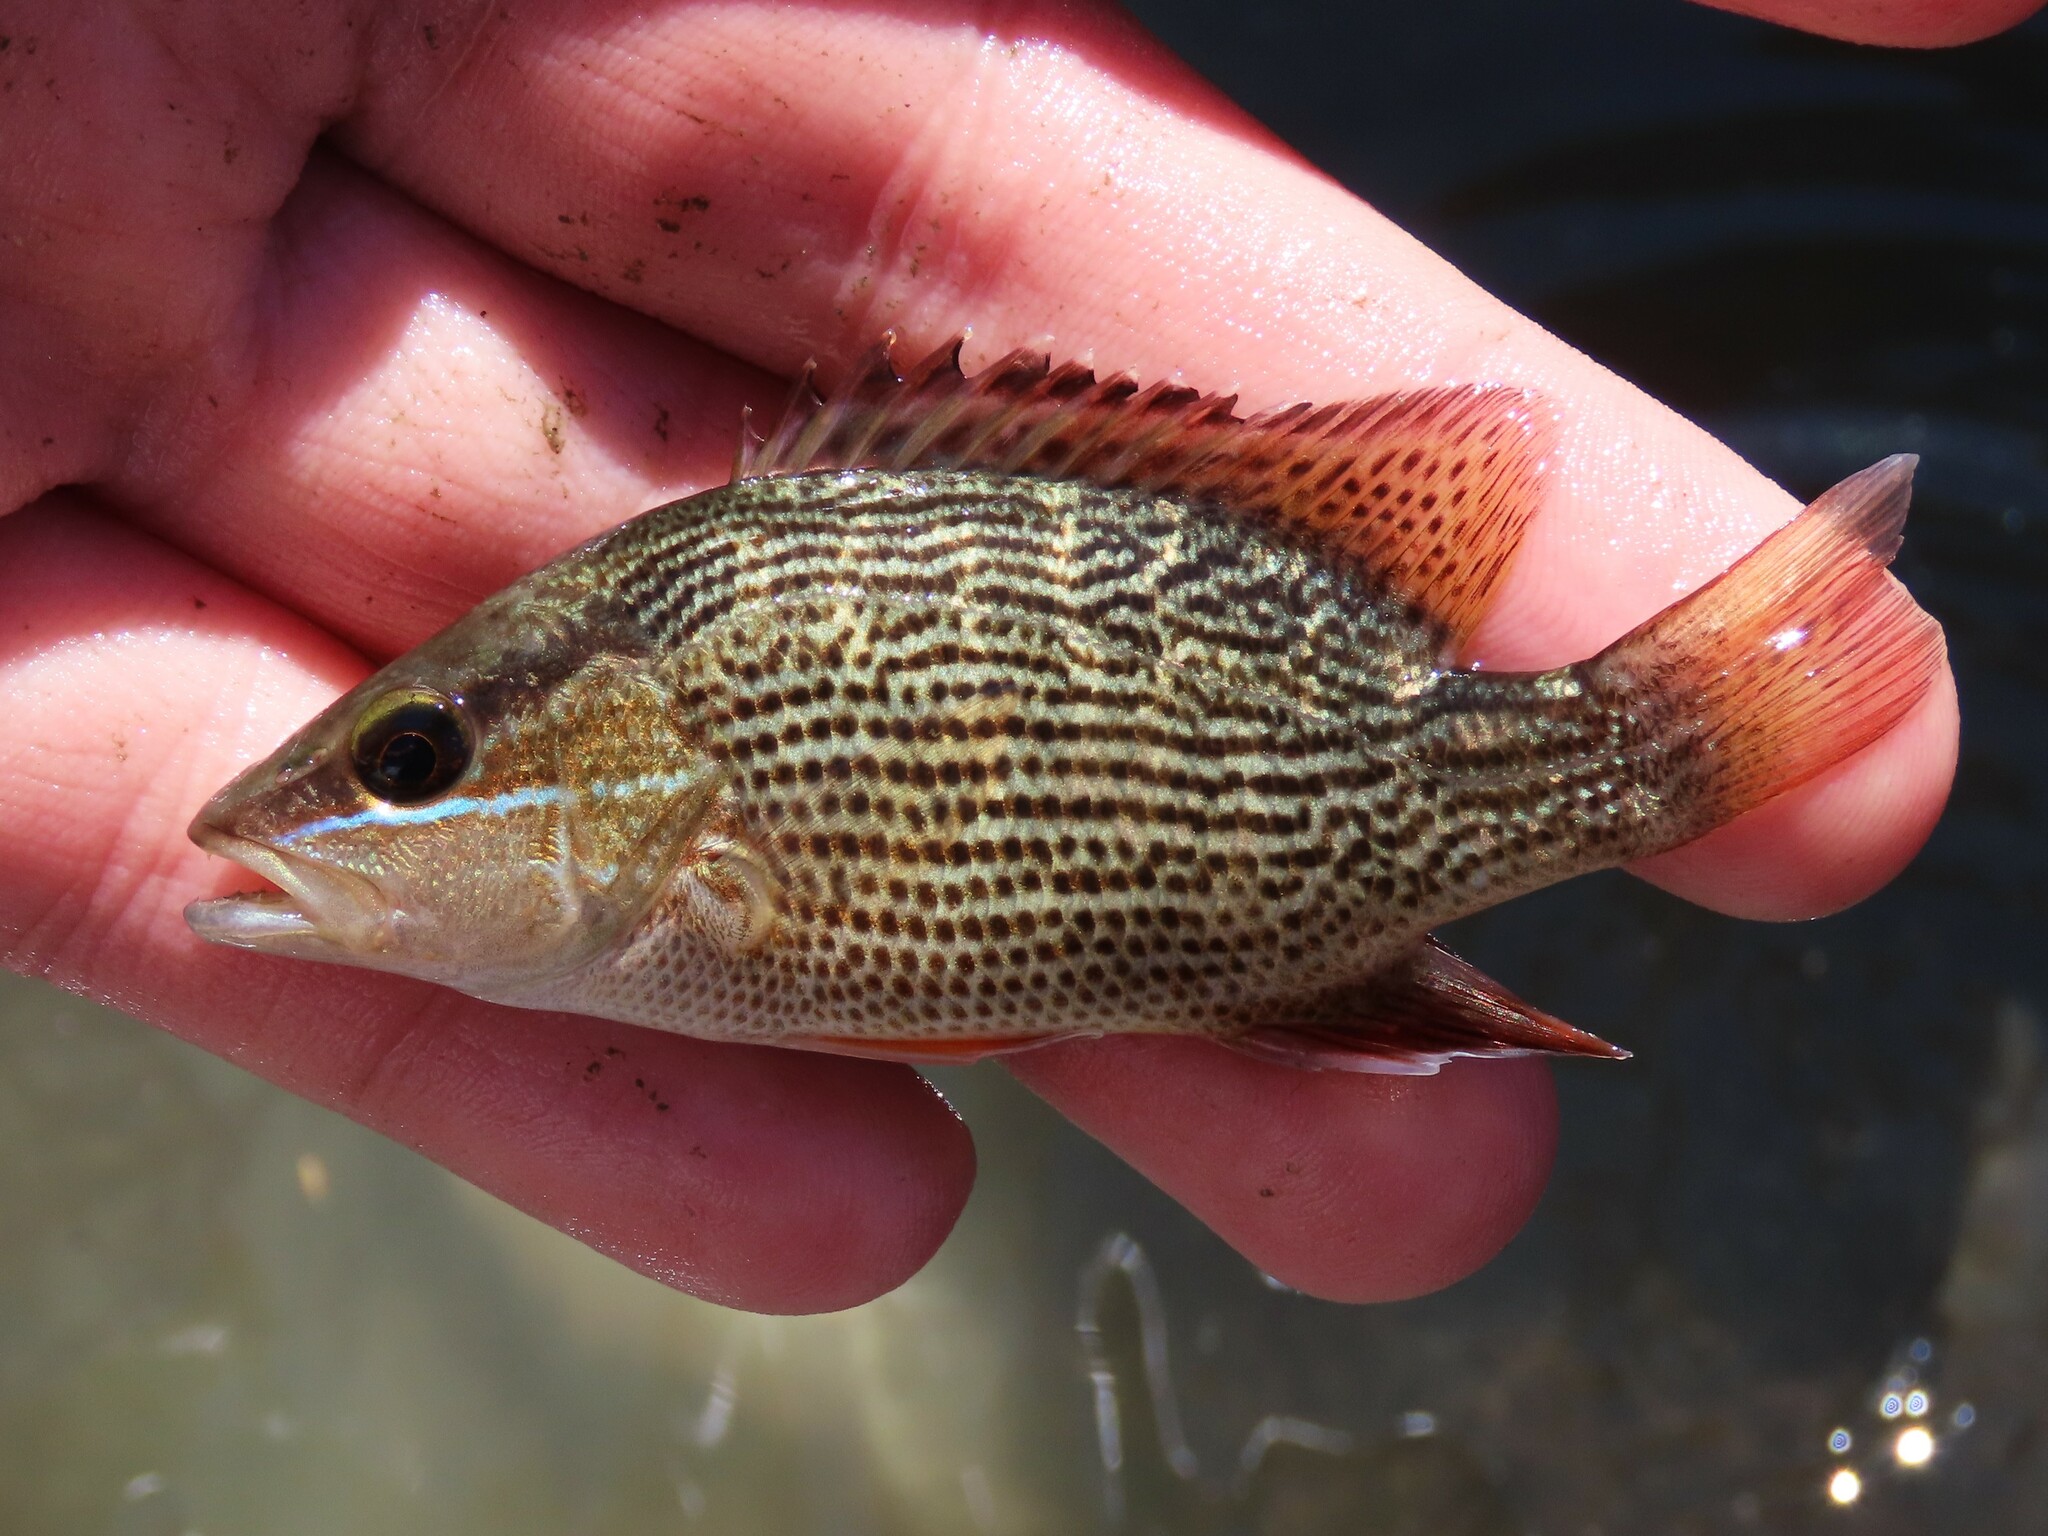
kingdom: Animalia
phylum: Chordata
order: Perciformes
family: Lutjanidae
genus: Lutjanus
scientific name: Lutjanus griseus
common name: Gray snapper
